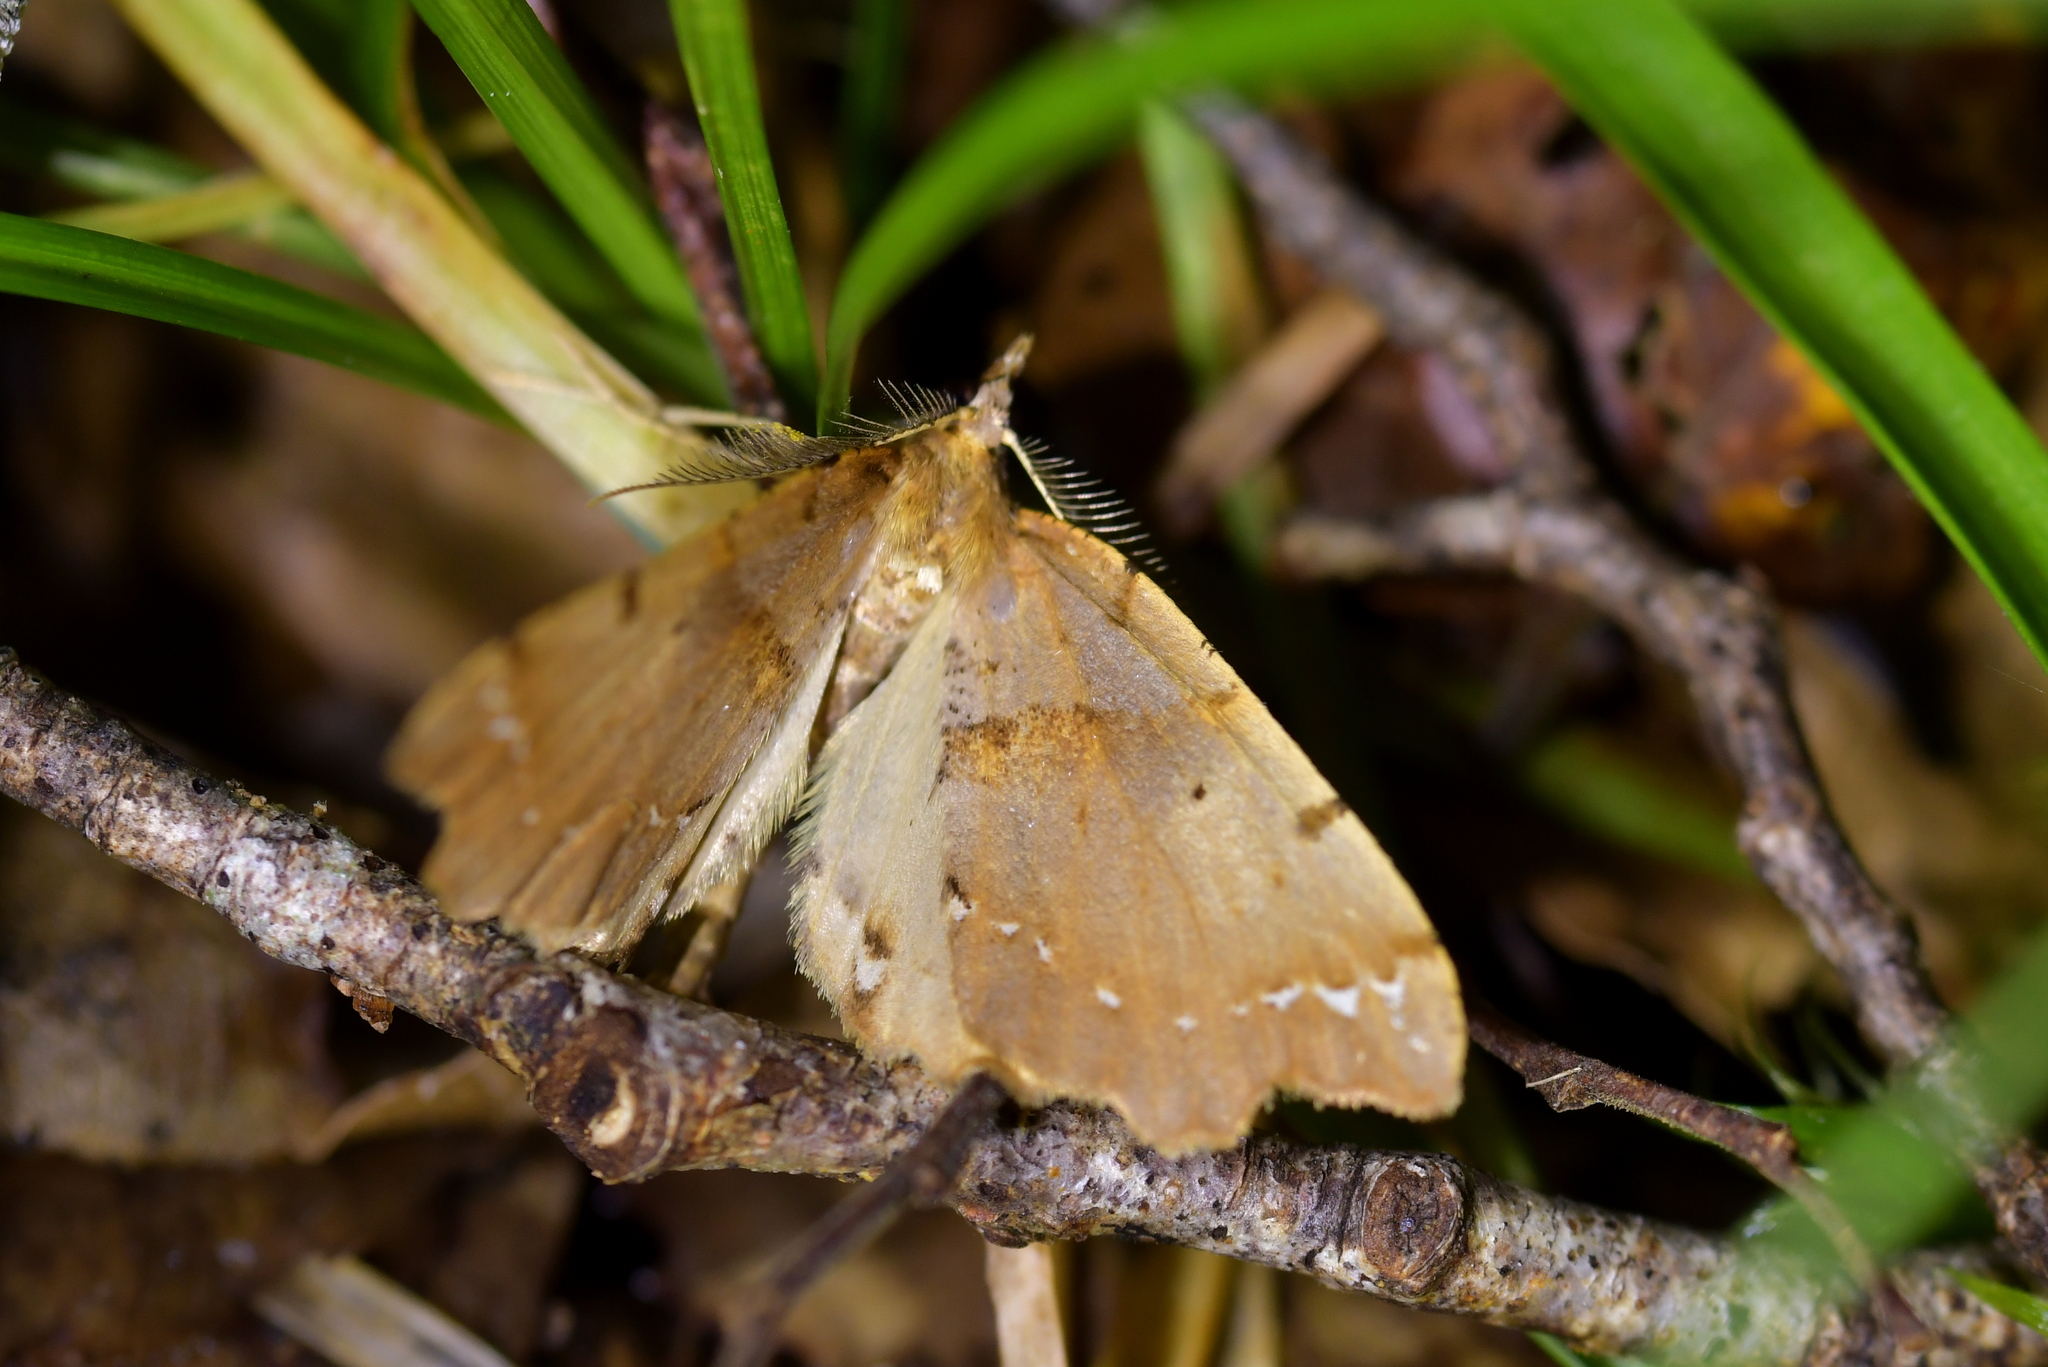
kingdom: Animalia
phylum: Arthropoda
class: Insecta
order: Lepidoptera
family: Geometridae
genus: Chalastra
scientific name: Chalastra pellurgata
